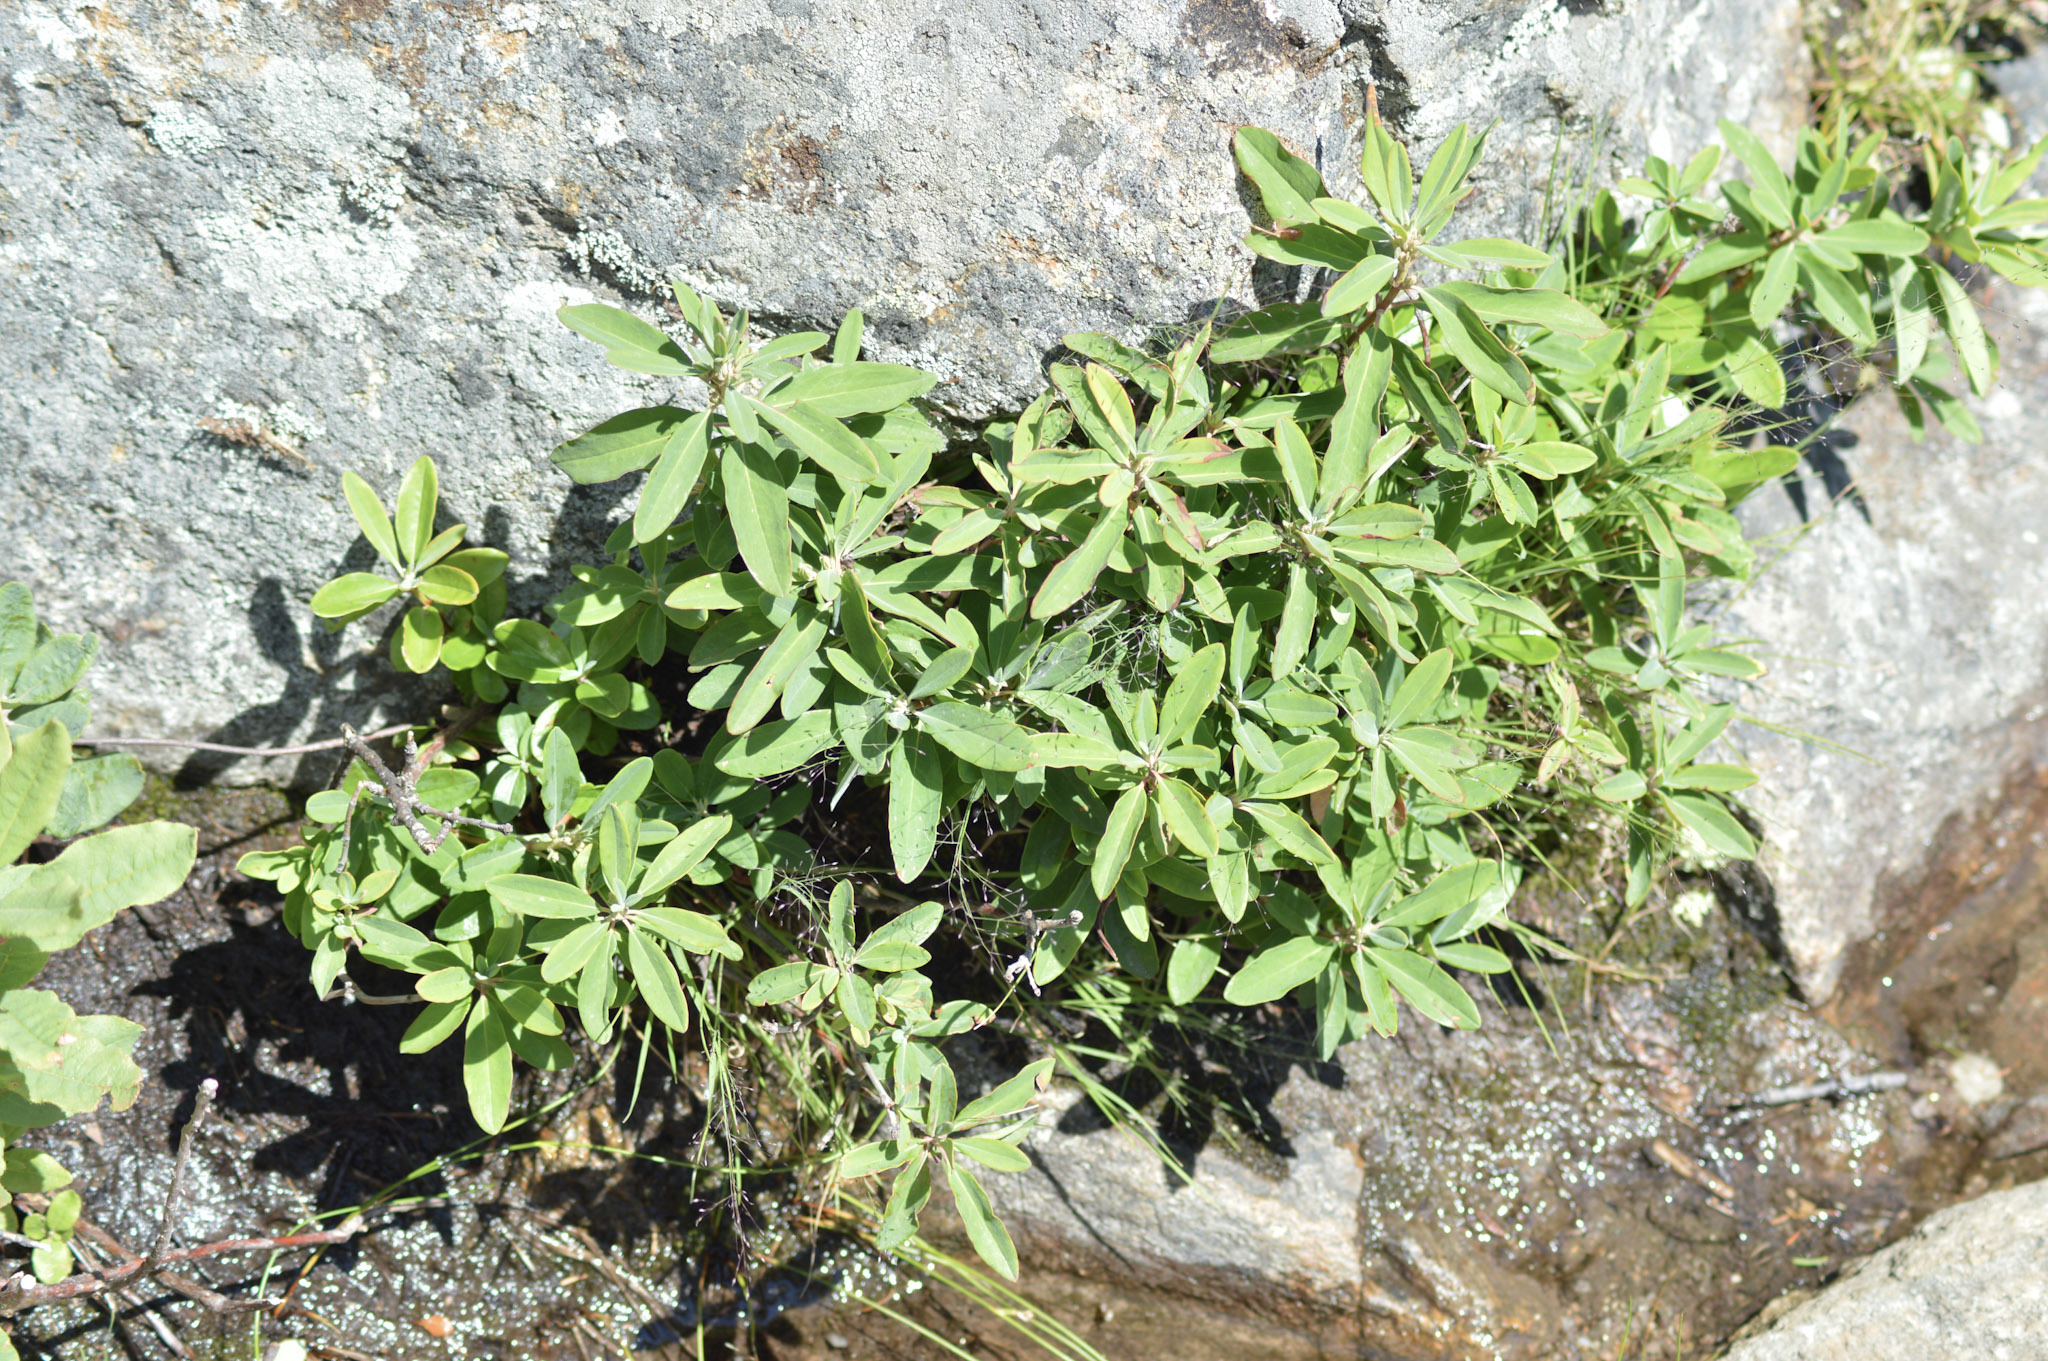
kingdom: Plantae
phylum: Tracheophyta
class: Magnoliopsida
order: Ericales
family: Ericaceae
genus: Kalmia
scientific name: Kalmia angustifolia
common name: Sheep-laurel
